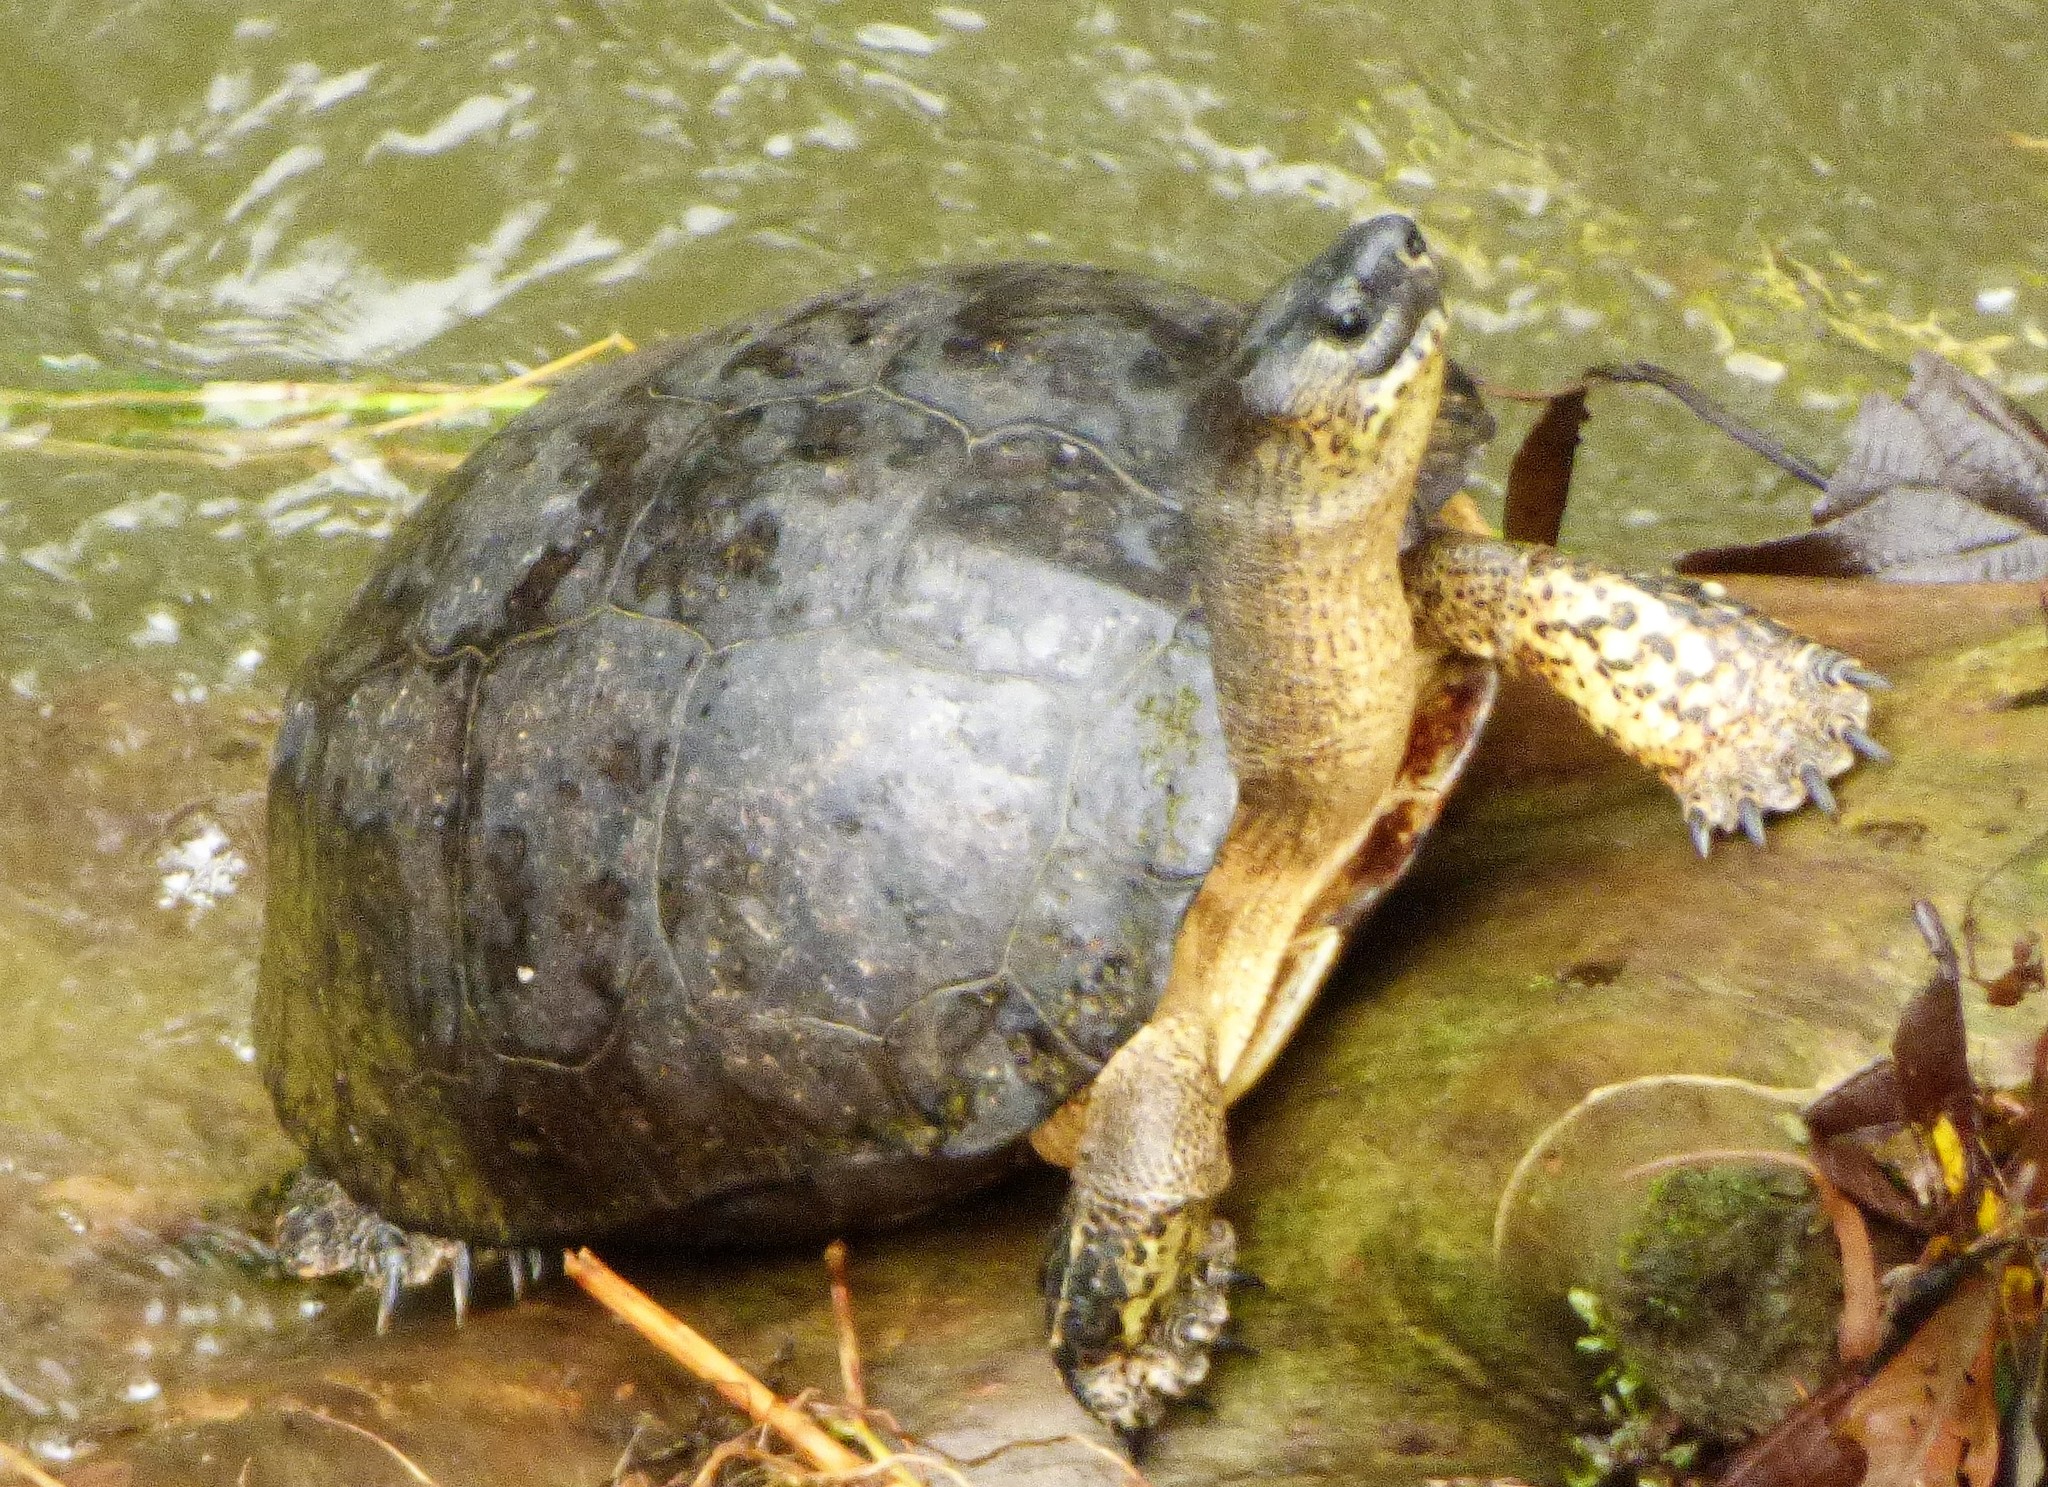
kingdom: Animalia
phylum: Chordata
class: Testudines
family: Geoemydidae
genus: Rhinoclemmys
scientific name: Rhinoclemmys funerea
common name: Black wood turtle
